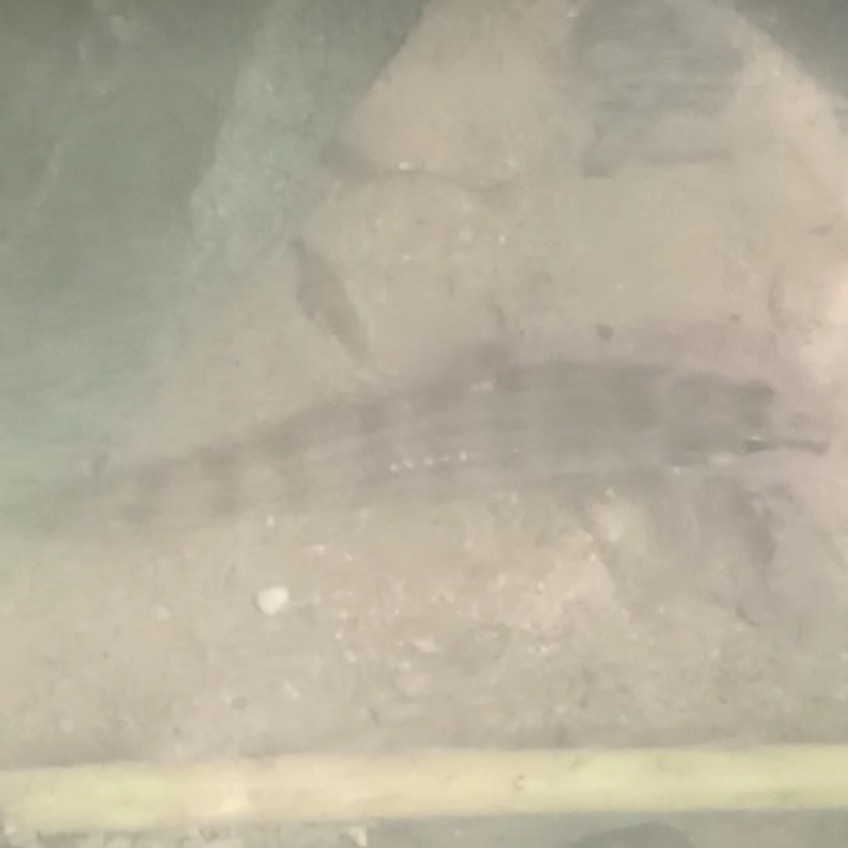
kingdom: Animalia
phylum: Chordata
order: Characiformes
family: Crenuchidae
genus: Characidium
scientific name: Characidium zebra
